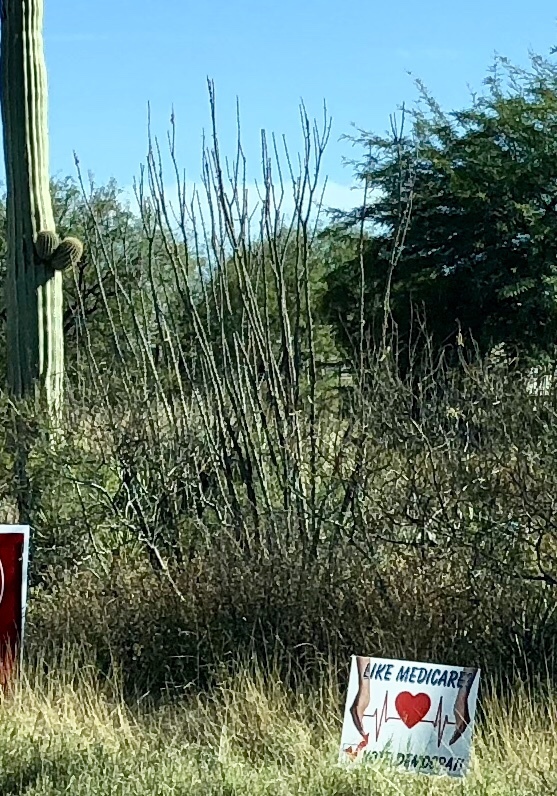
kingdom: Plantae
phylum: Tracheophyta
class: Magnoliopsida
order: Ericales
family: Fouquieriaceae
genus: Fouquieria
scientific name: Fouquieria splendens
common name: Vine-cactus
